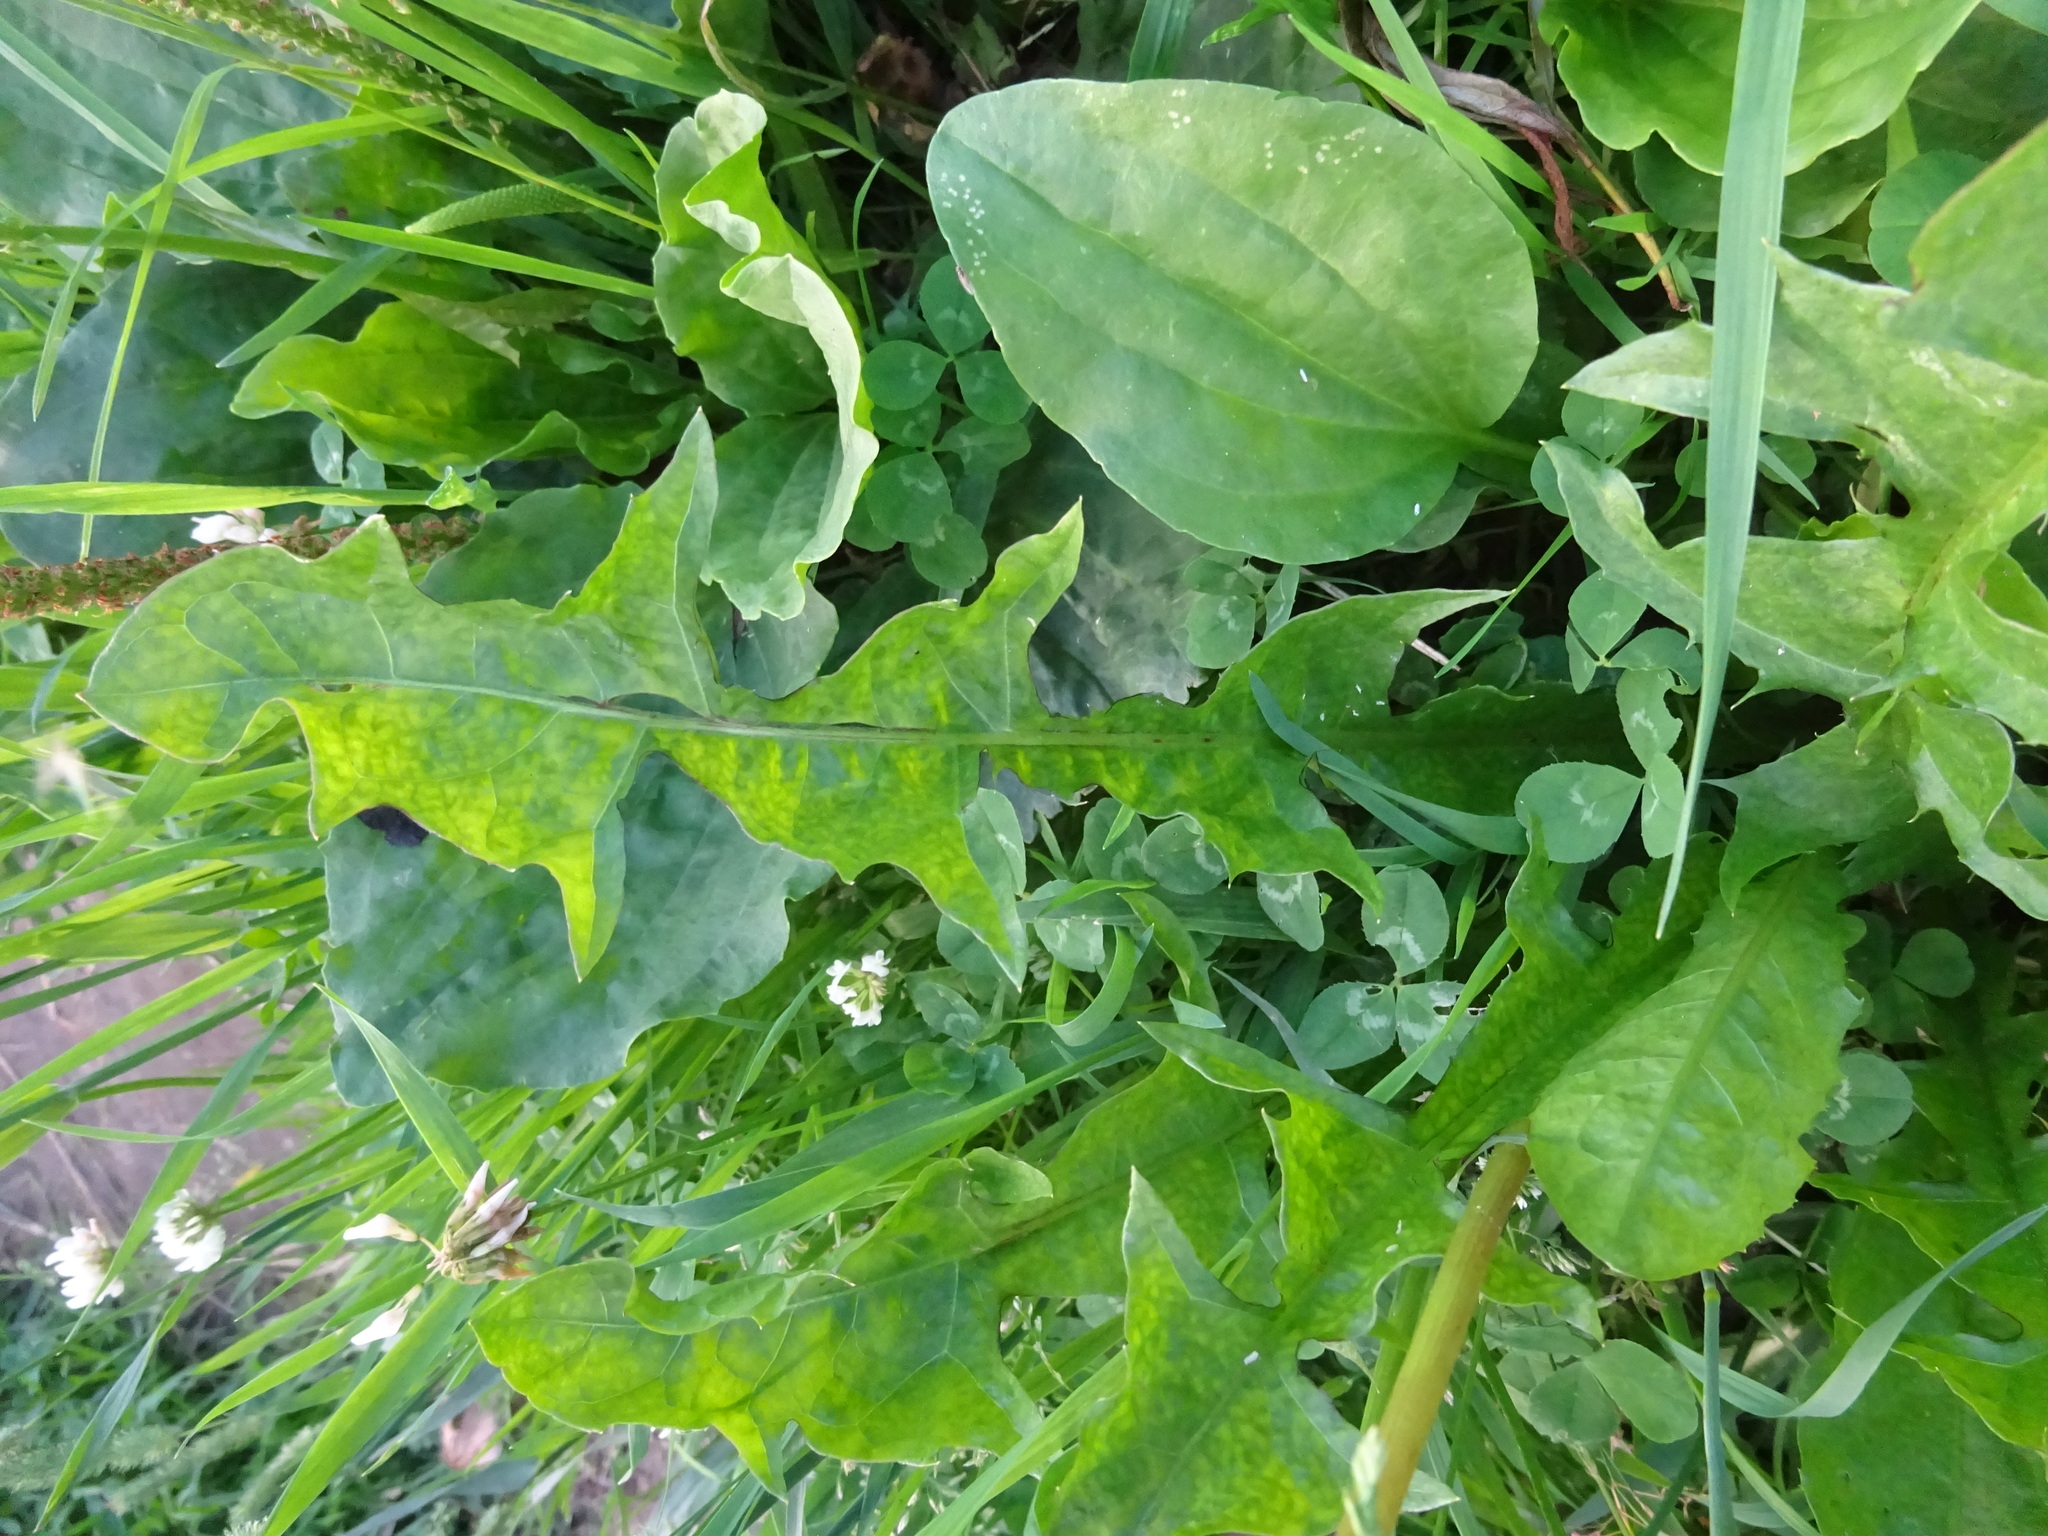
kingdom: Plantae
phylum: Tracheophyta
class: Magnoliopsida
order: Asterales
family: Asteraceae
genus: Taraxacum
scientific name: Taraxacum officinale
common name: Common dandelion
